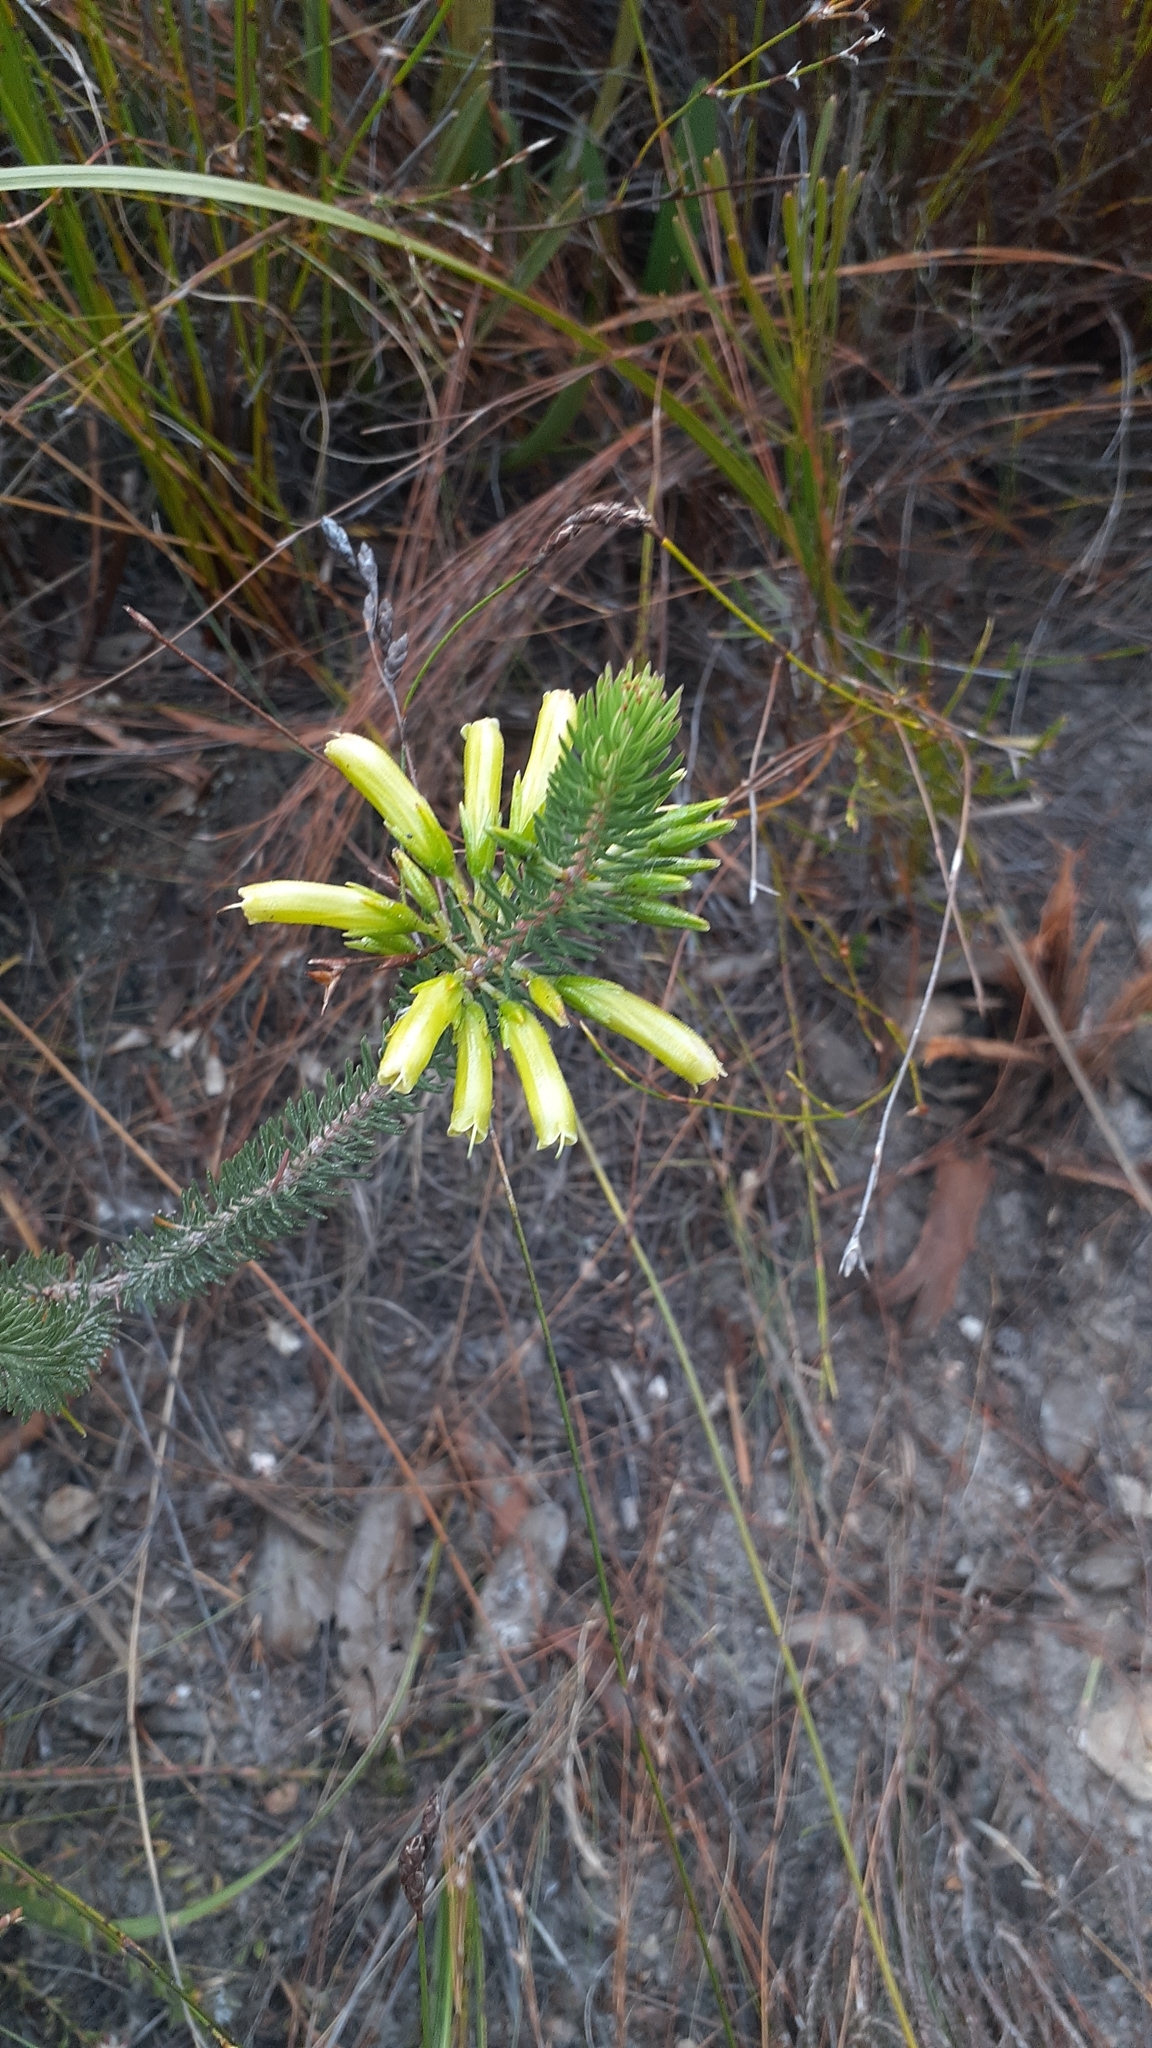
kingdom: Plantae
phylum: Tracheophyta
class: Magnoliopsida
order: Ericales
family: Ericaceae
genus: Erica
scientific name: Erica thomae
